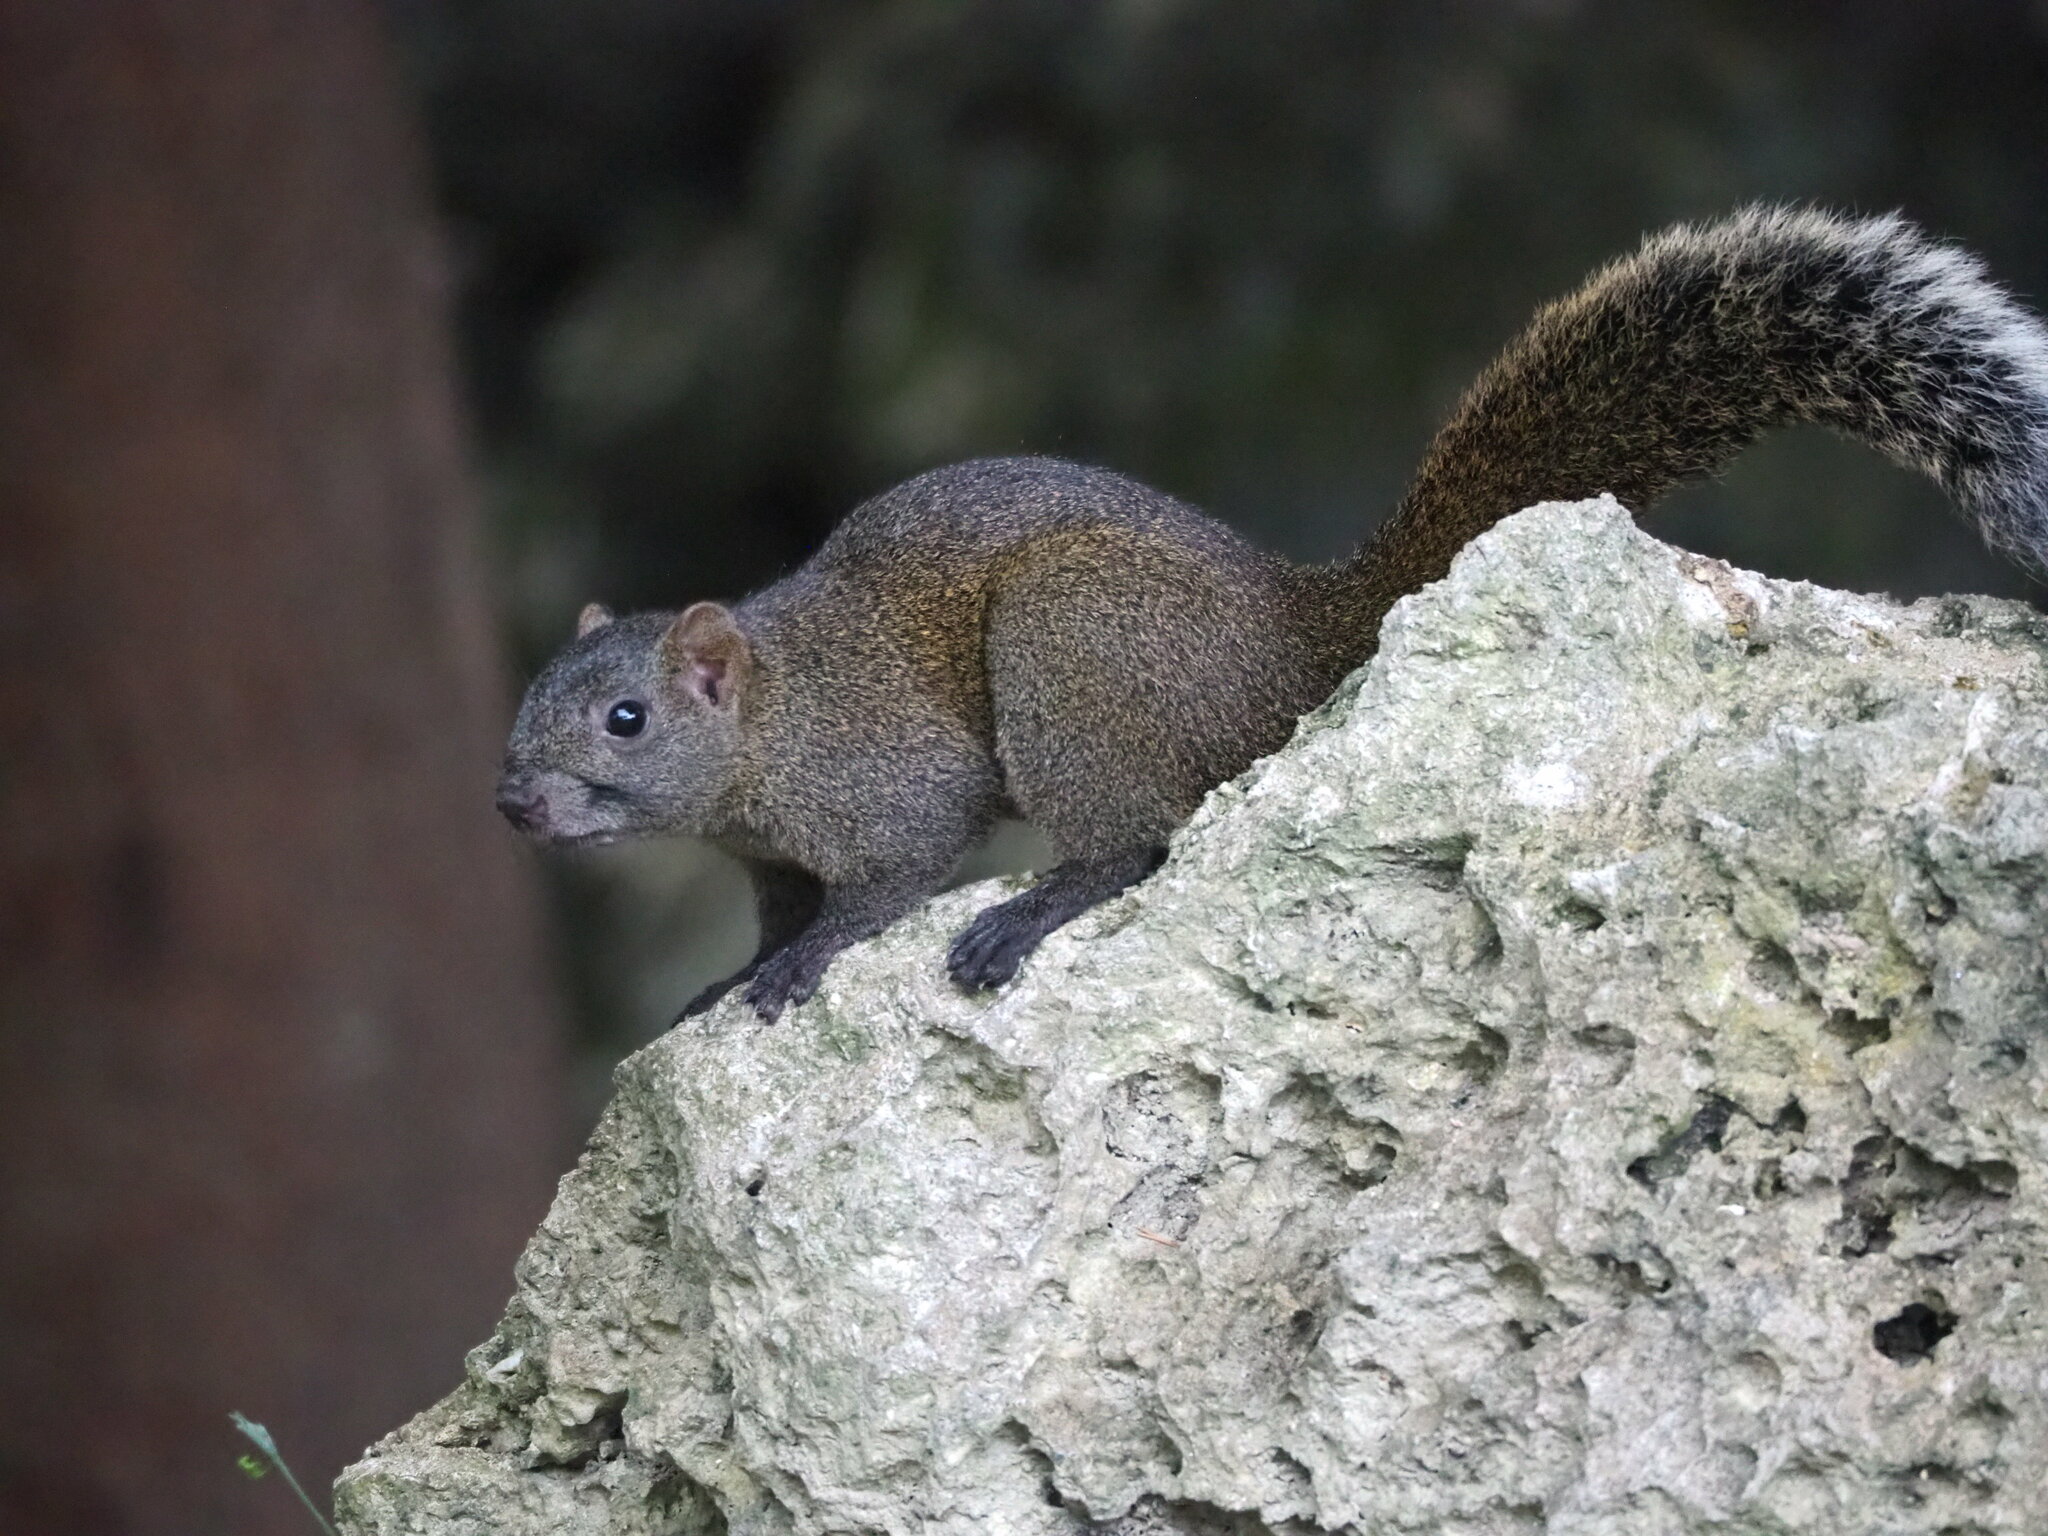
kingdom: Animalia
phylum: Chordata
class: Mammalia
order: Rodentia
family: Sciuridae
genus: Callosciurus
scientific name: Callosciurus erythraeus
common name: Pallas's squirrel
